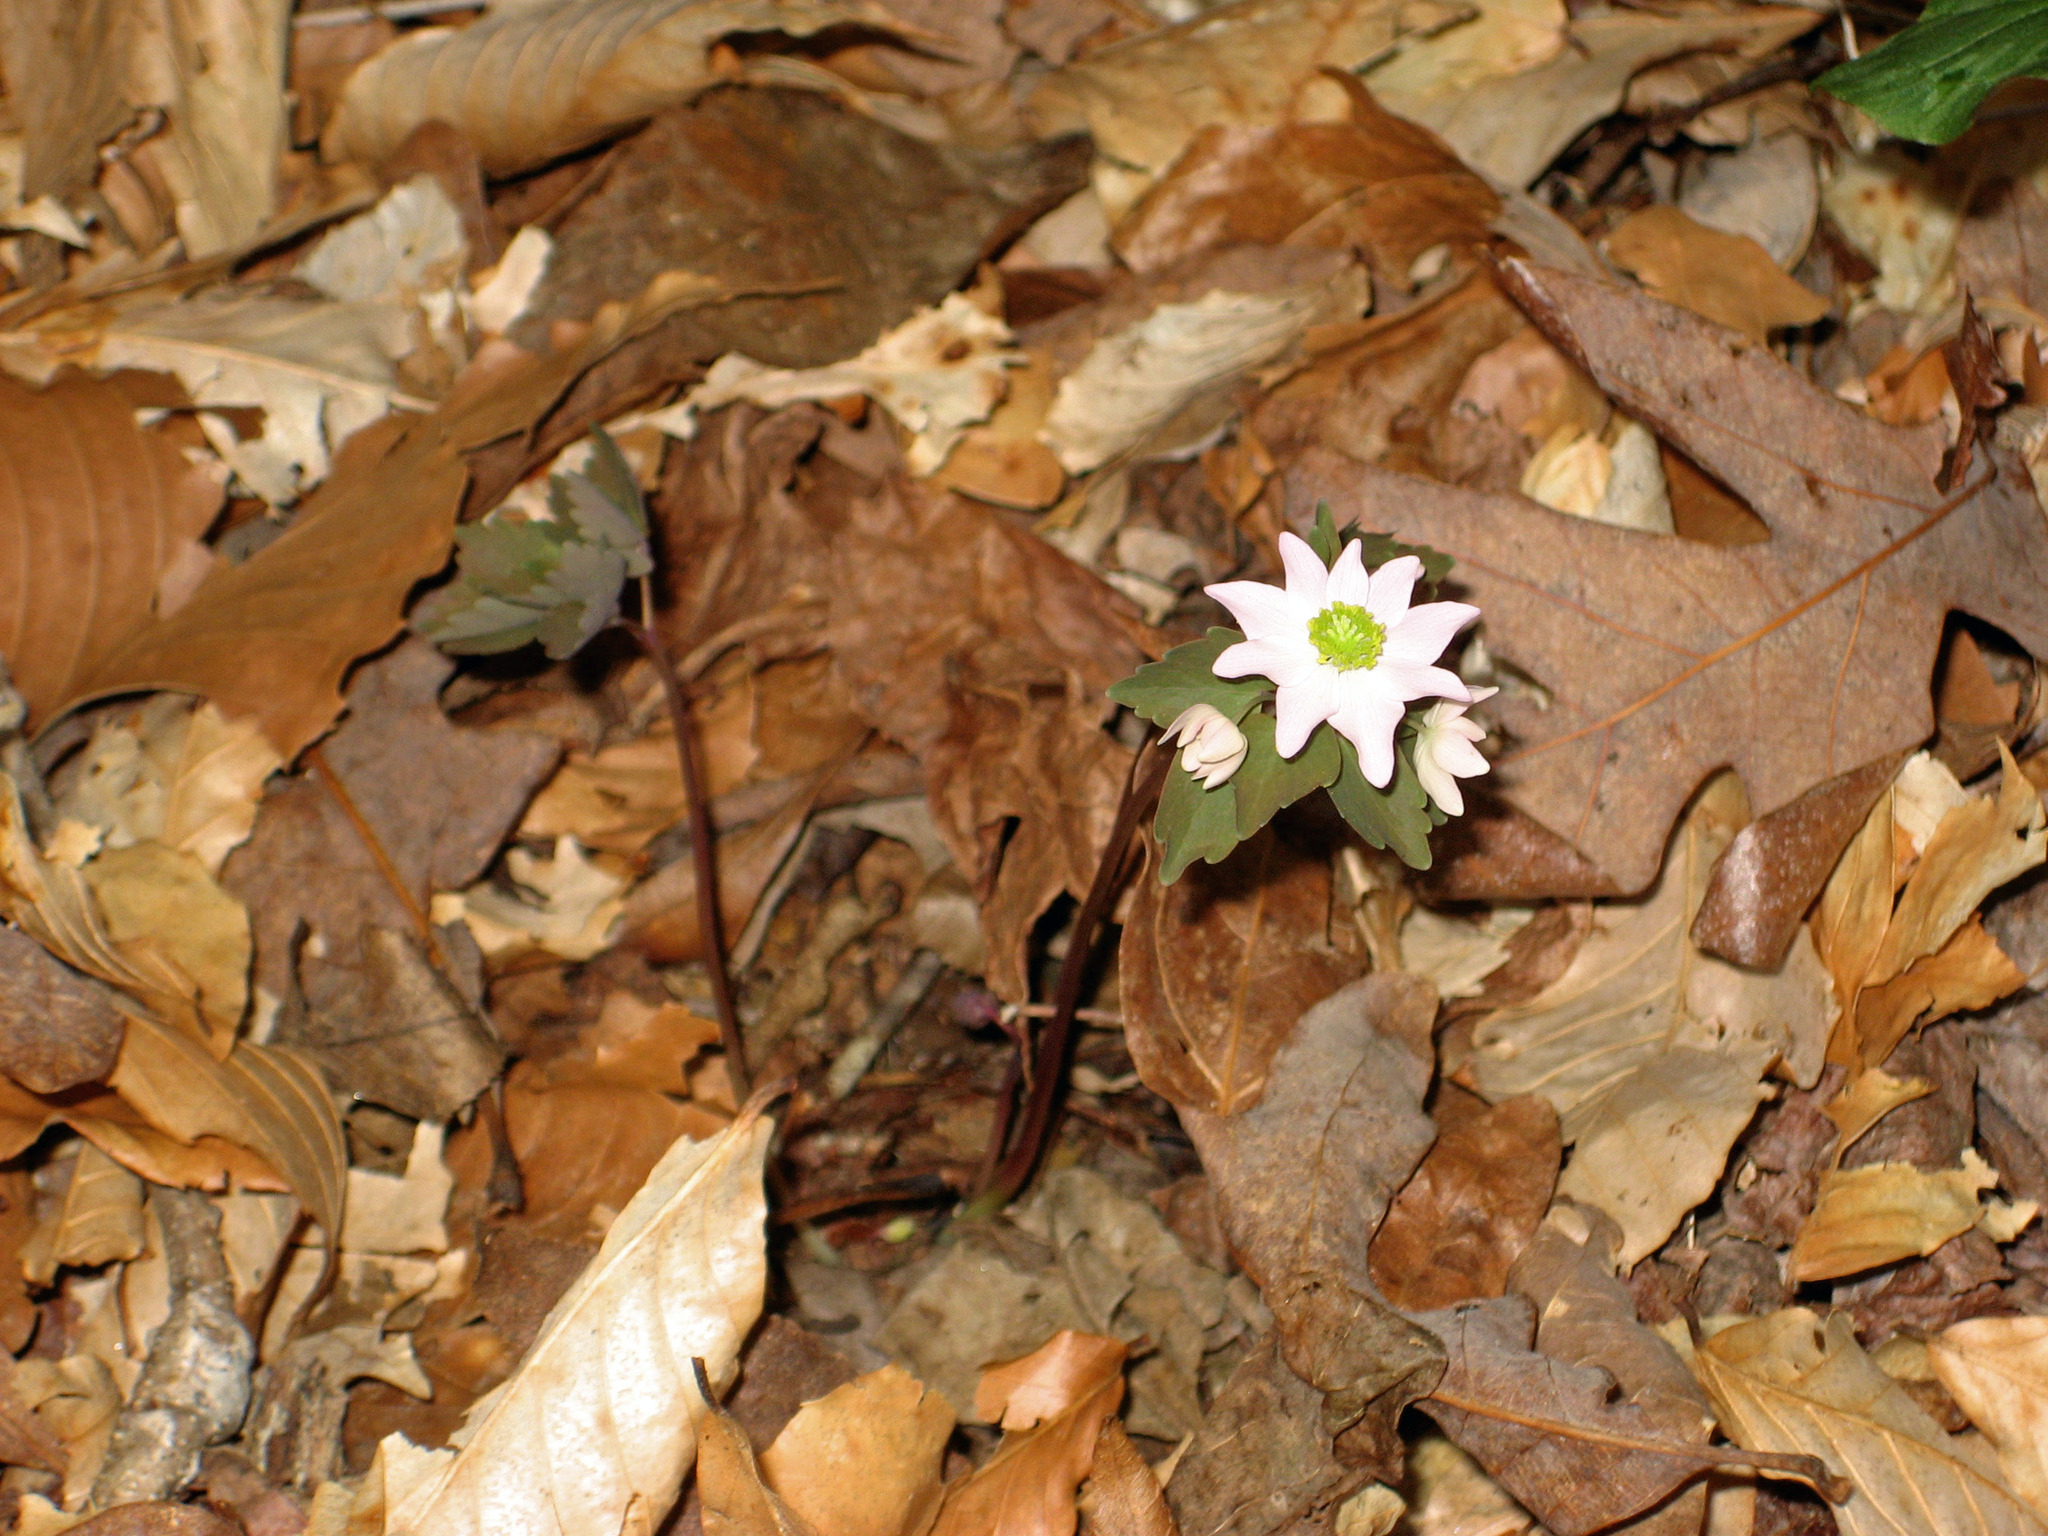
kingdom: Plantae
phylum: Tracheophyta
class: Magnoliopsida
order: Ranunculales
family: Ranunculaceae
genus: Thalictrum
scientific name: Thalictrum thalictroides
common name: Rue-anemone
